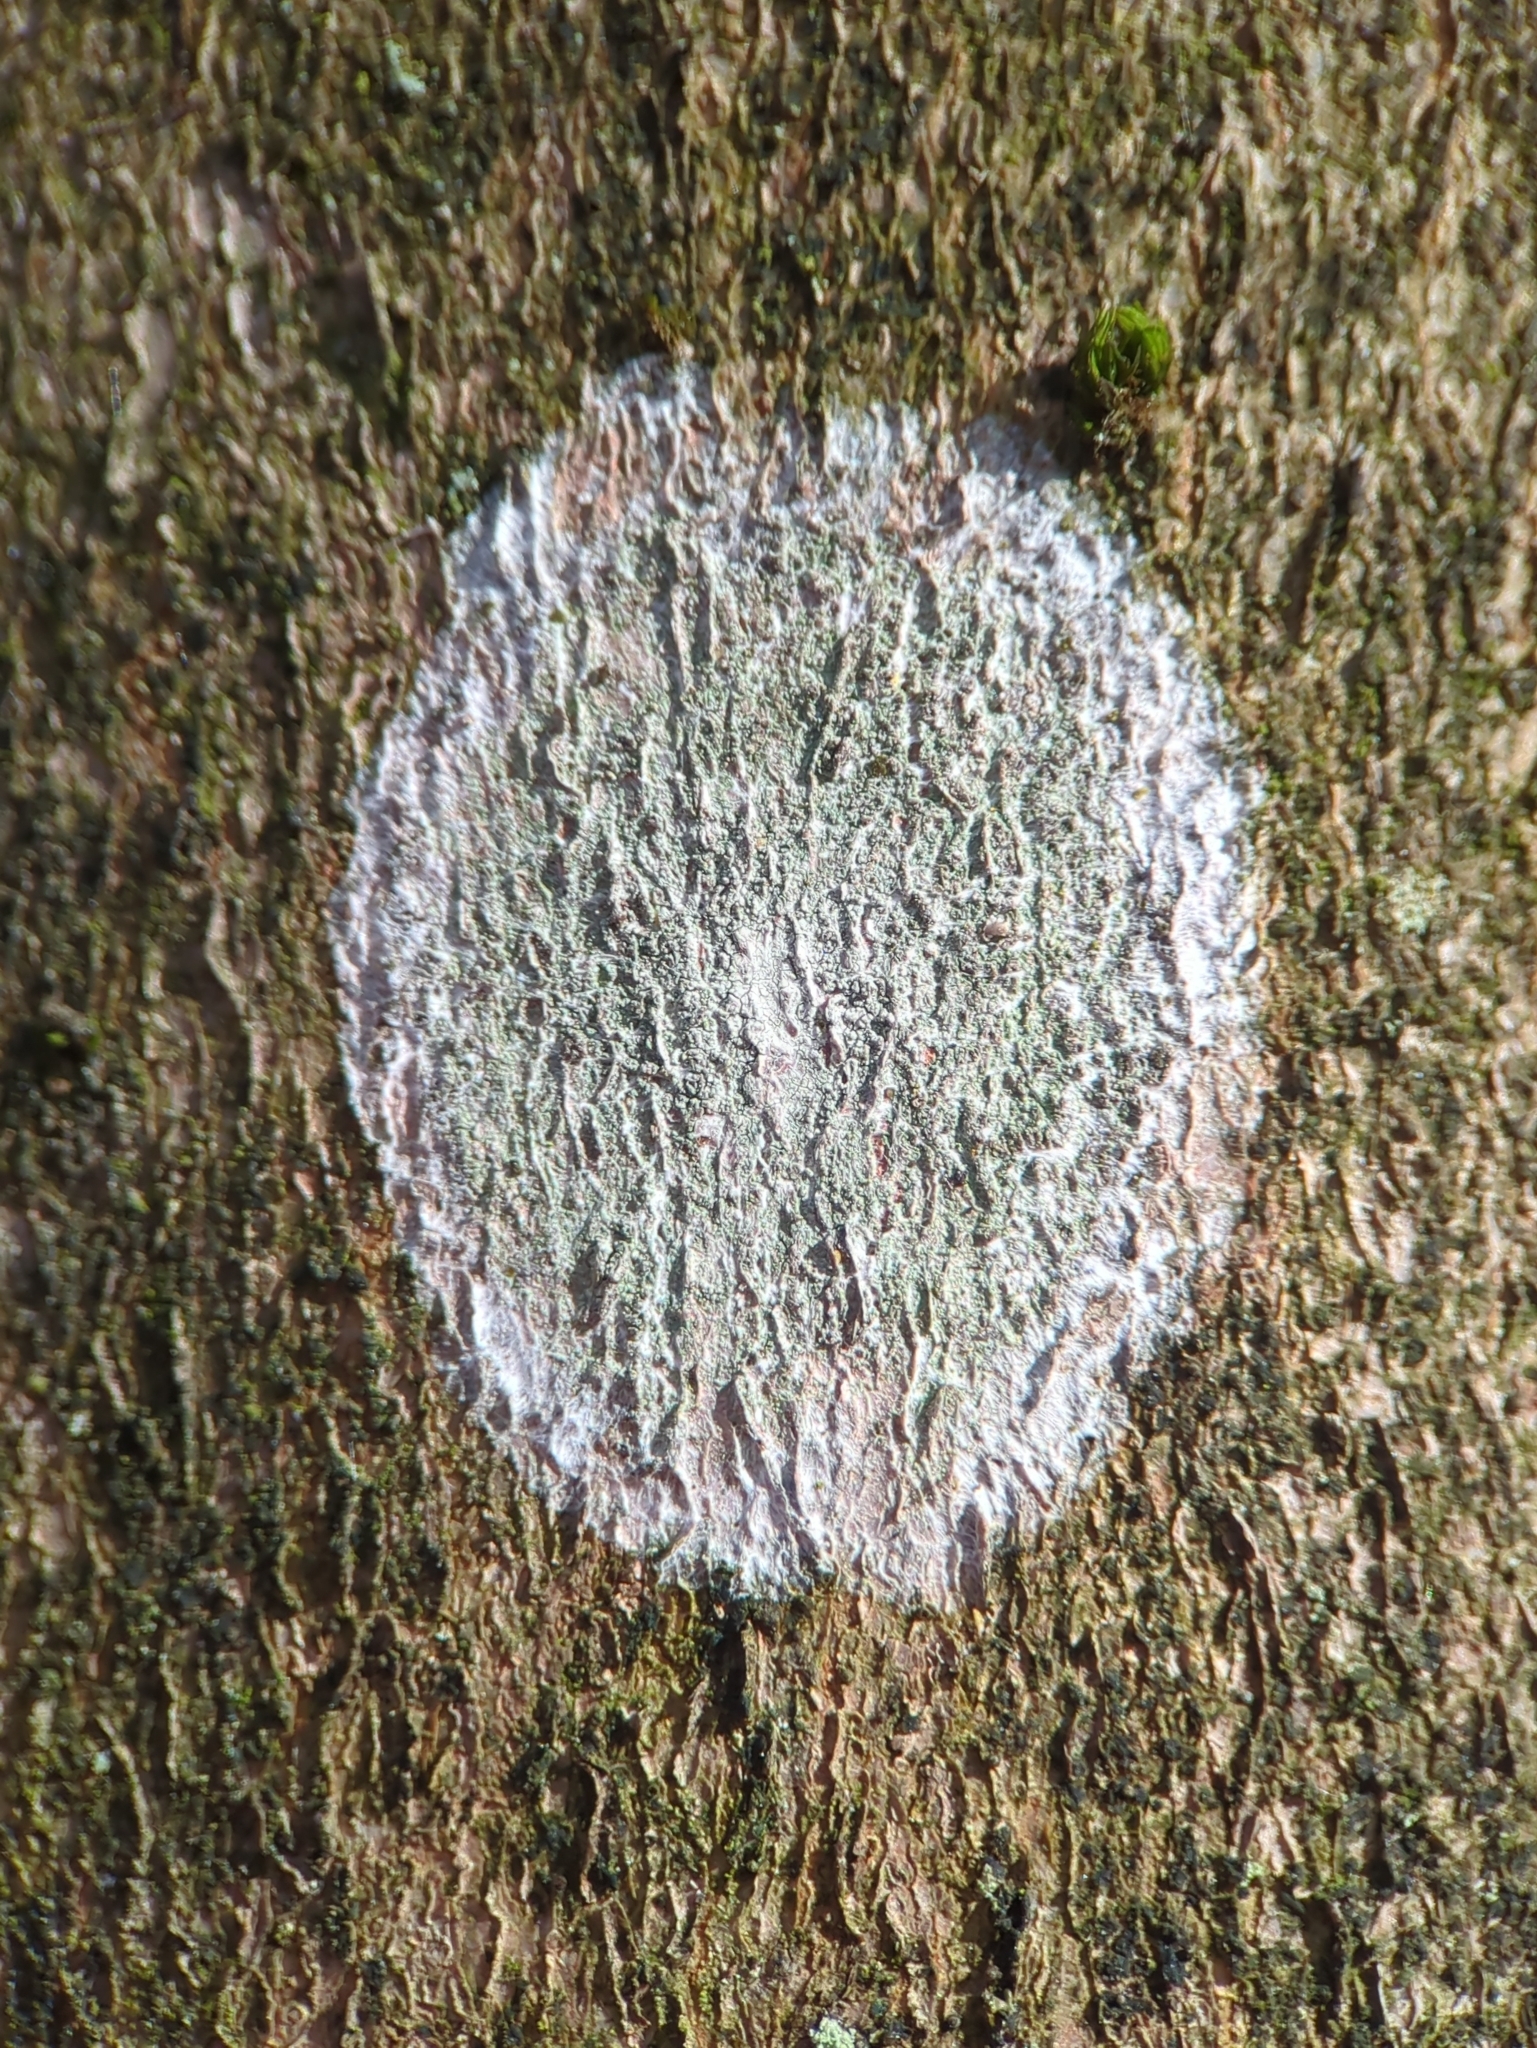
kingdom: Fungi
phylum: Ascomycota
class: Lecanoromycetes
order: Ostropales
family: Phlyctidaceae
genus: Phlyctis
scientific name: Phlyctis argena
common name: Whitewash lichen
